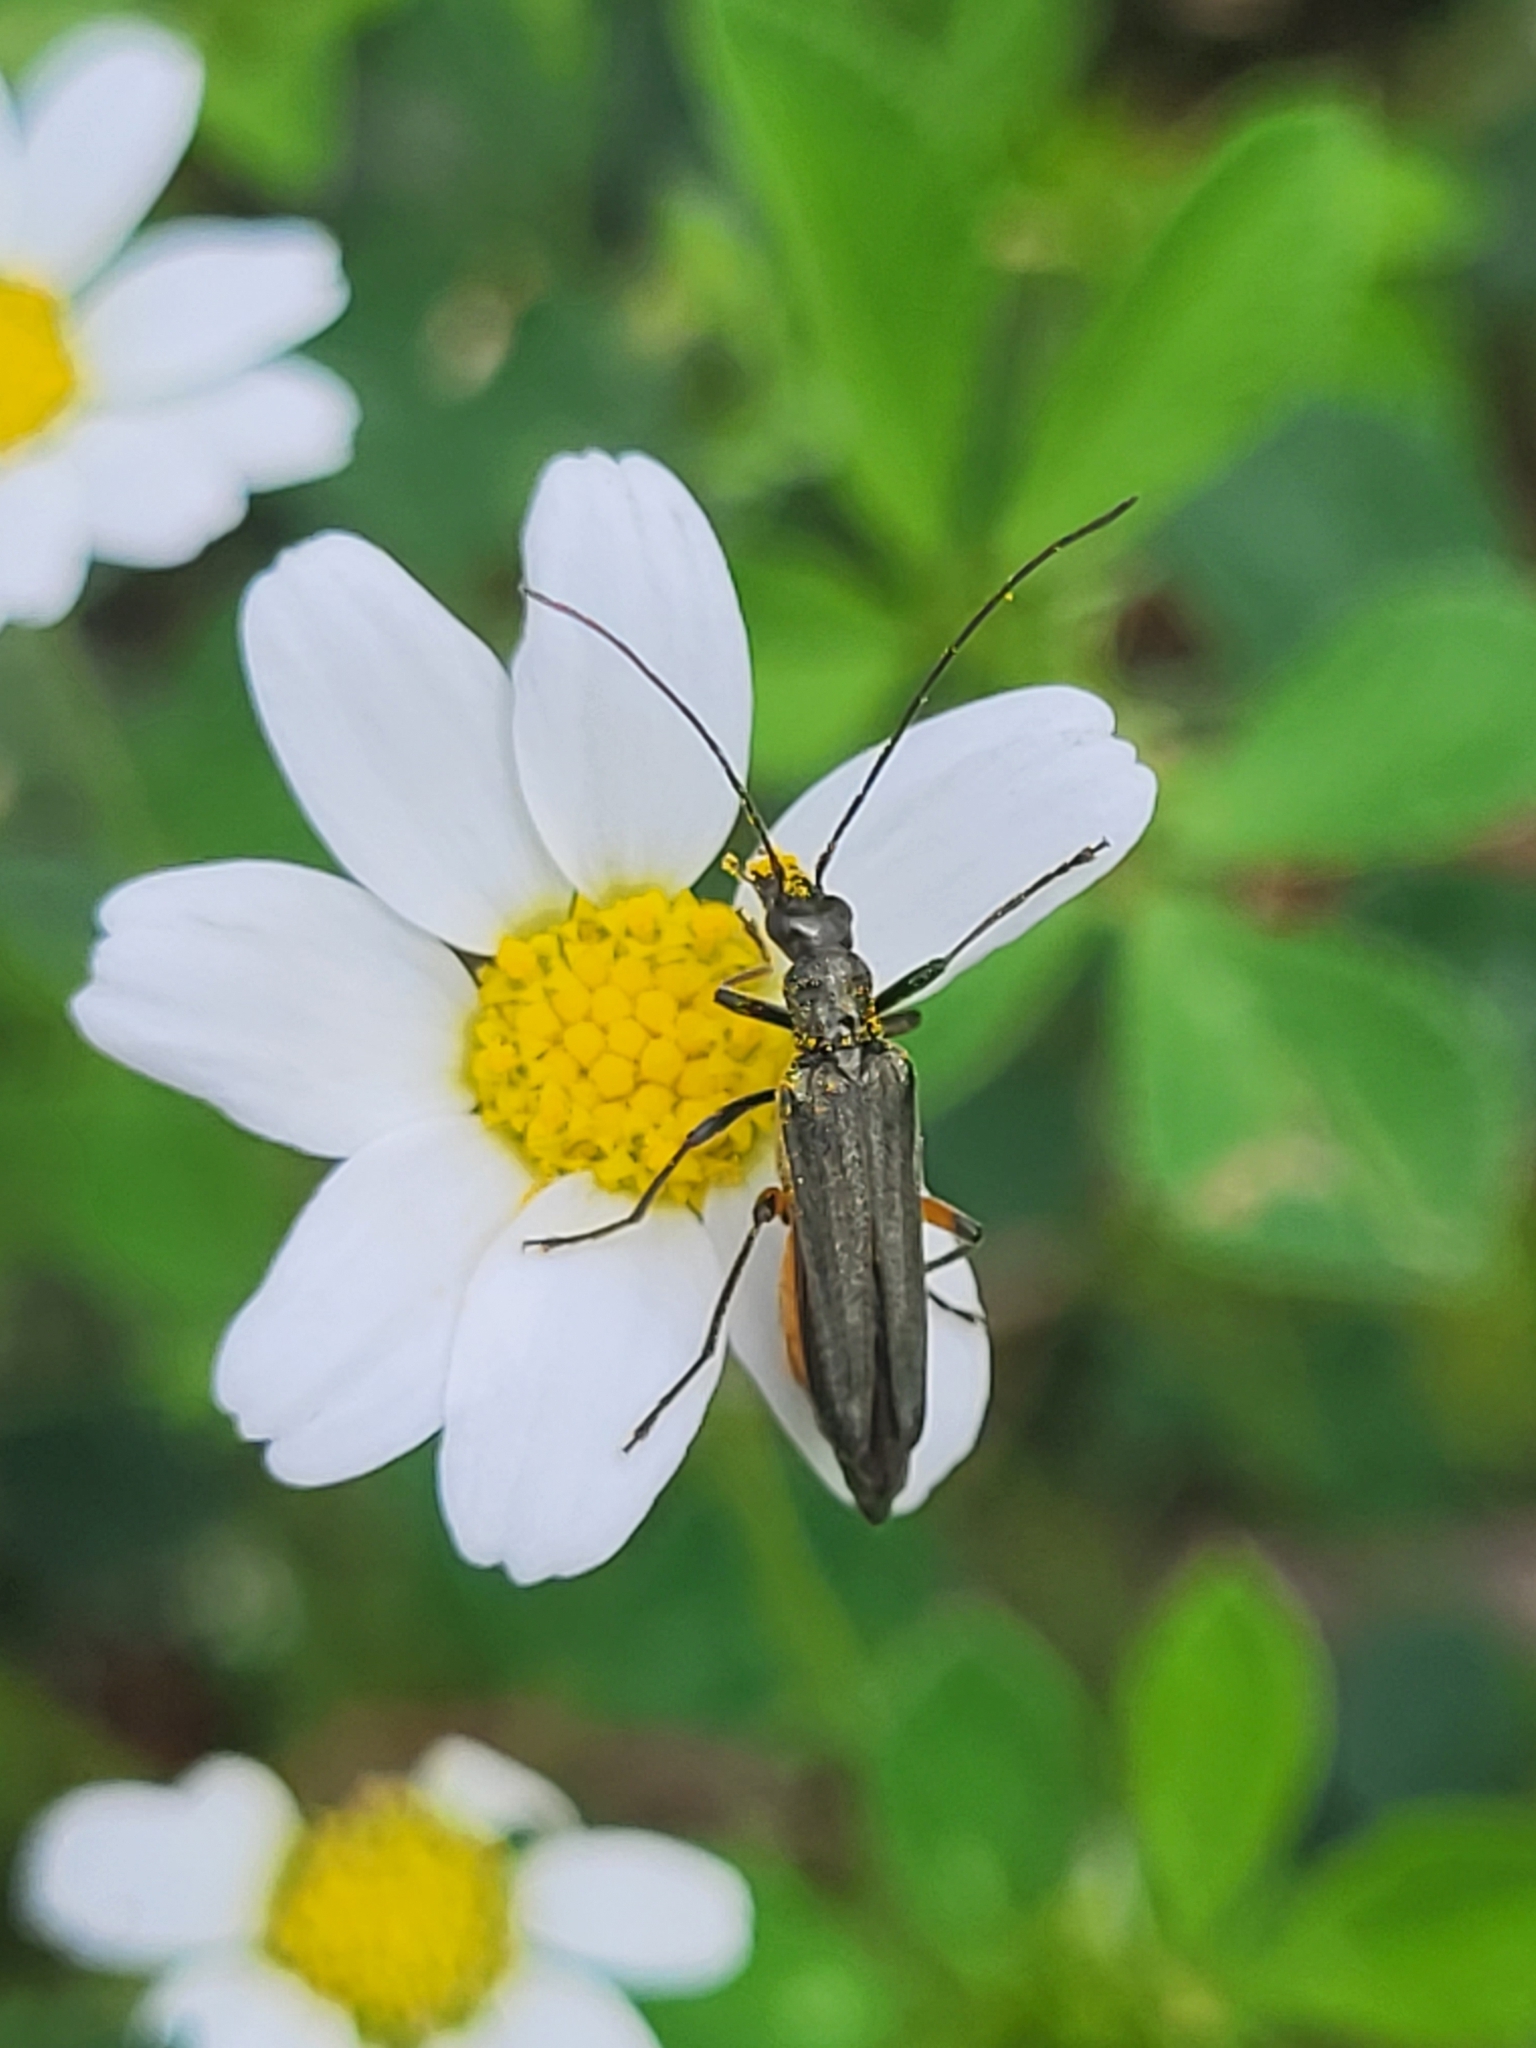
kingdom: Animalia
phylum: Arthropoda
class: Insecta
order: Coleoptera
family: Oedemeridae
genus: Oedemera
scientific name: Oedemera rufofemorata
